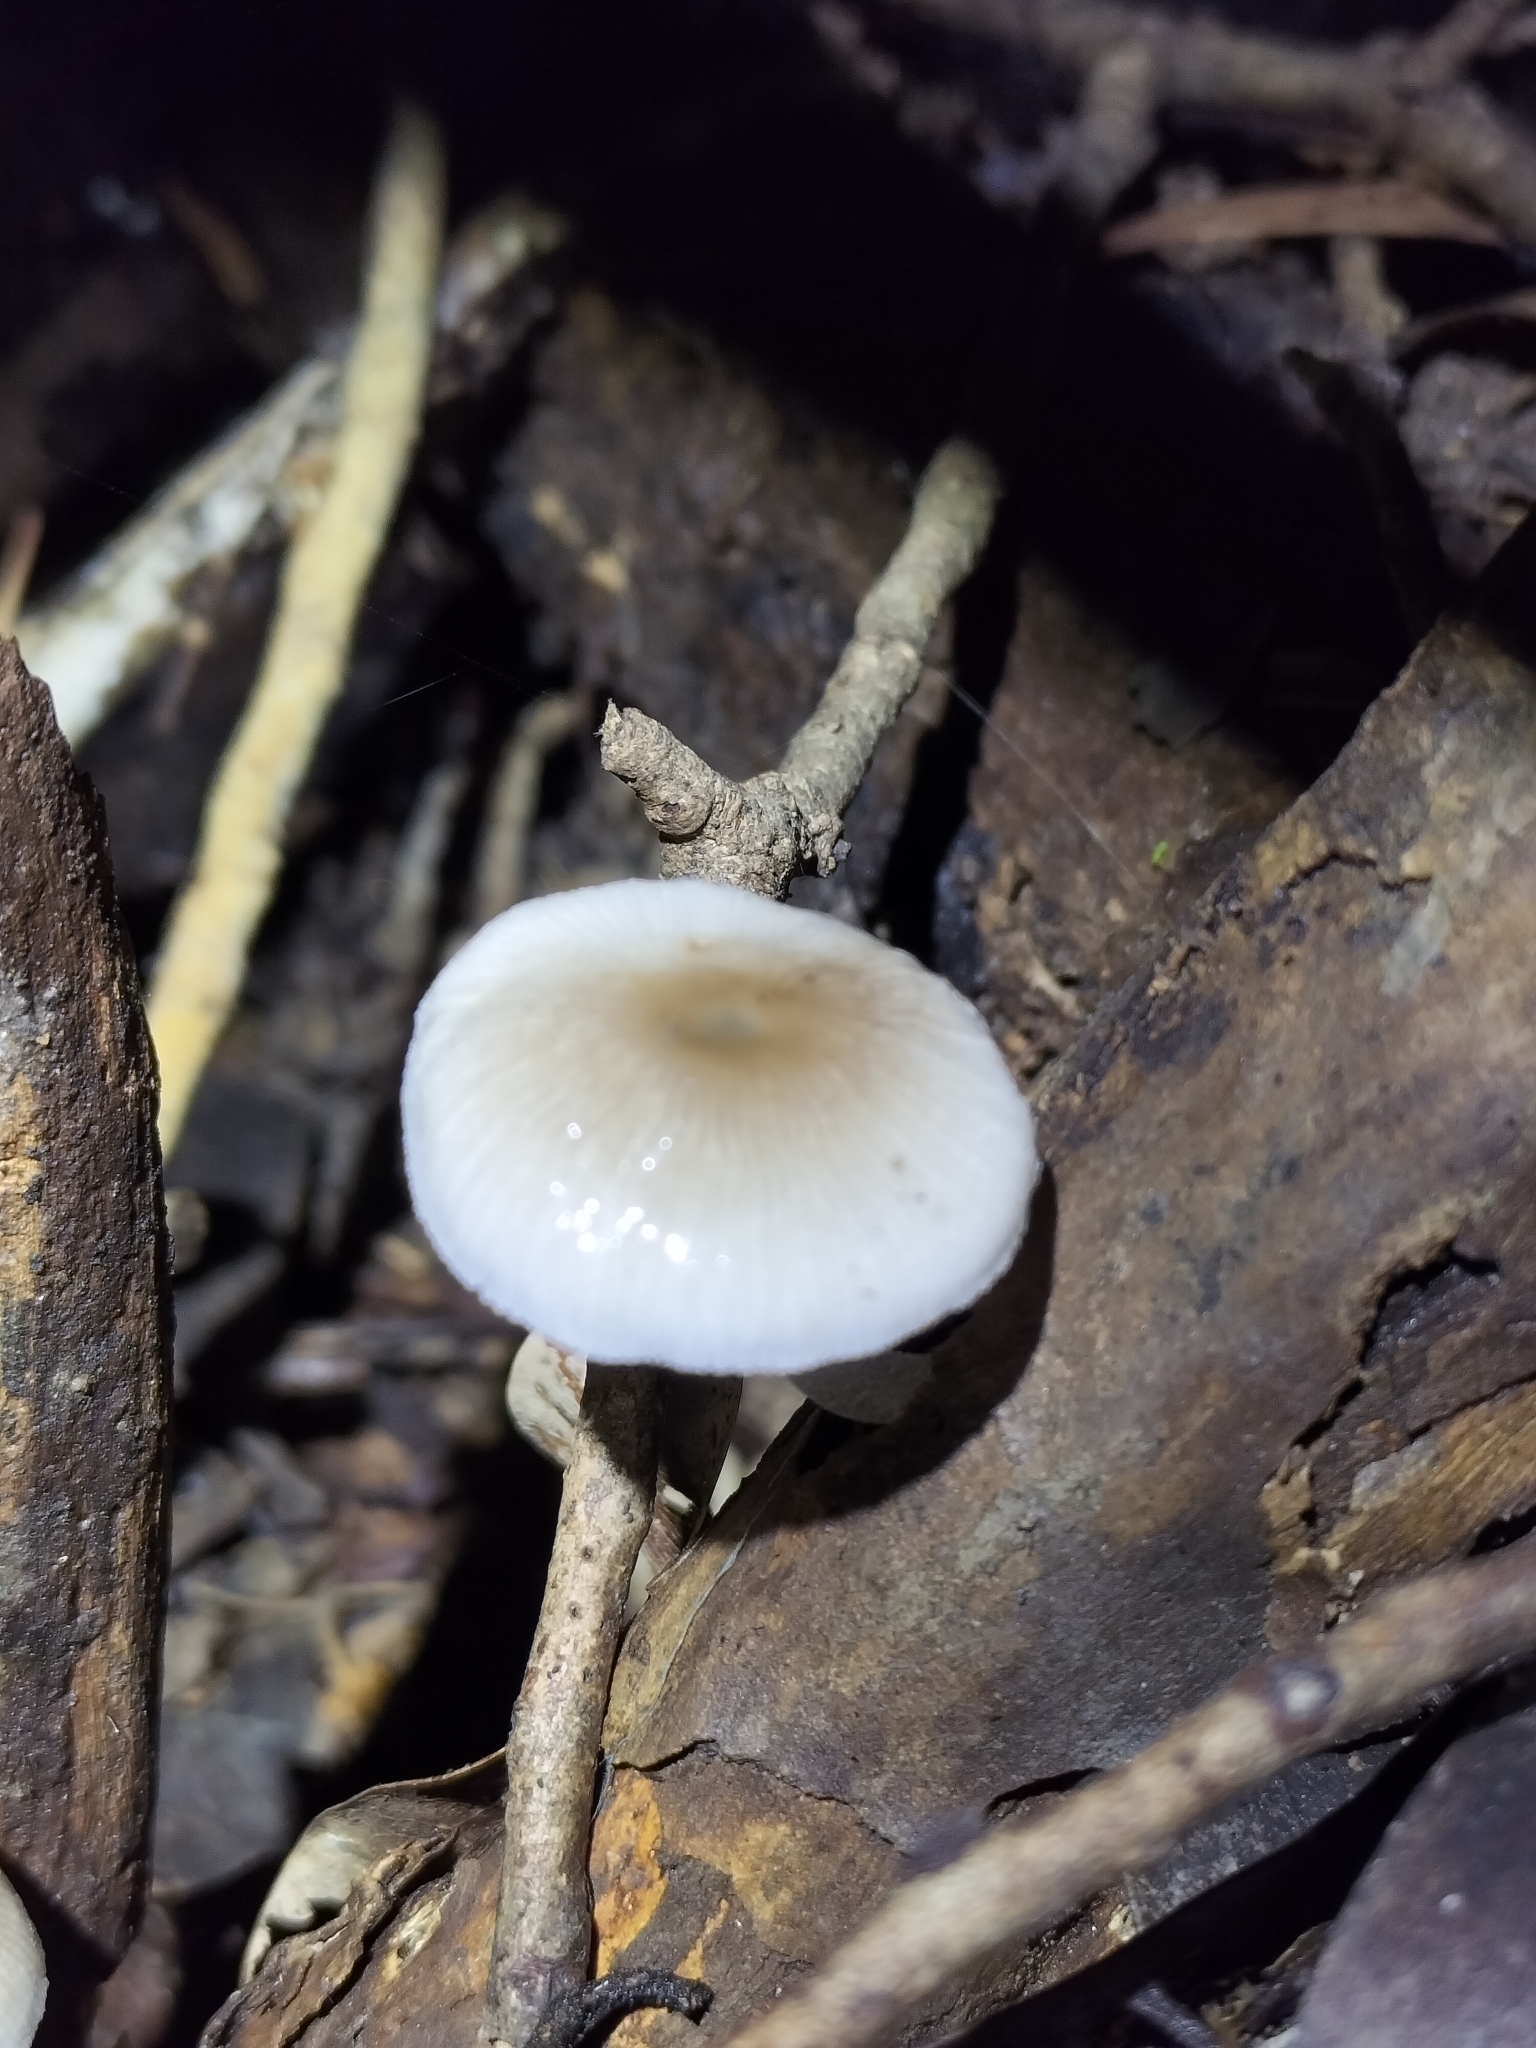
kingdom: Fungi
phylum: Basidiomycota
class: Agaricomycetes
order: Agaricales
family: Mycenaceae
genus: Mycena
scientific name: Mycena chlorophos
